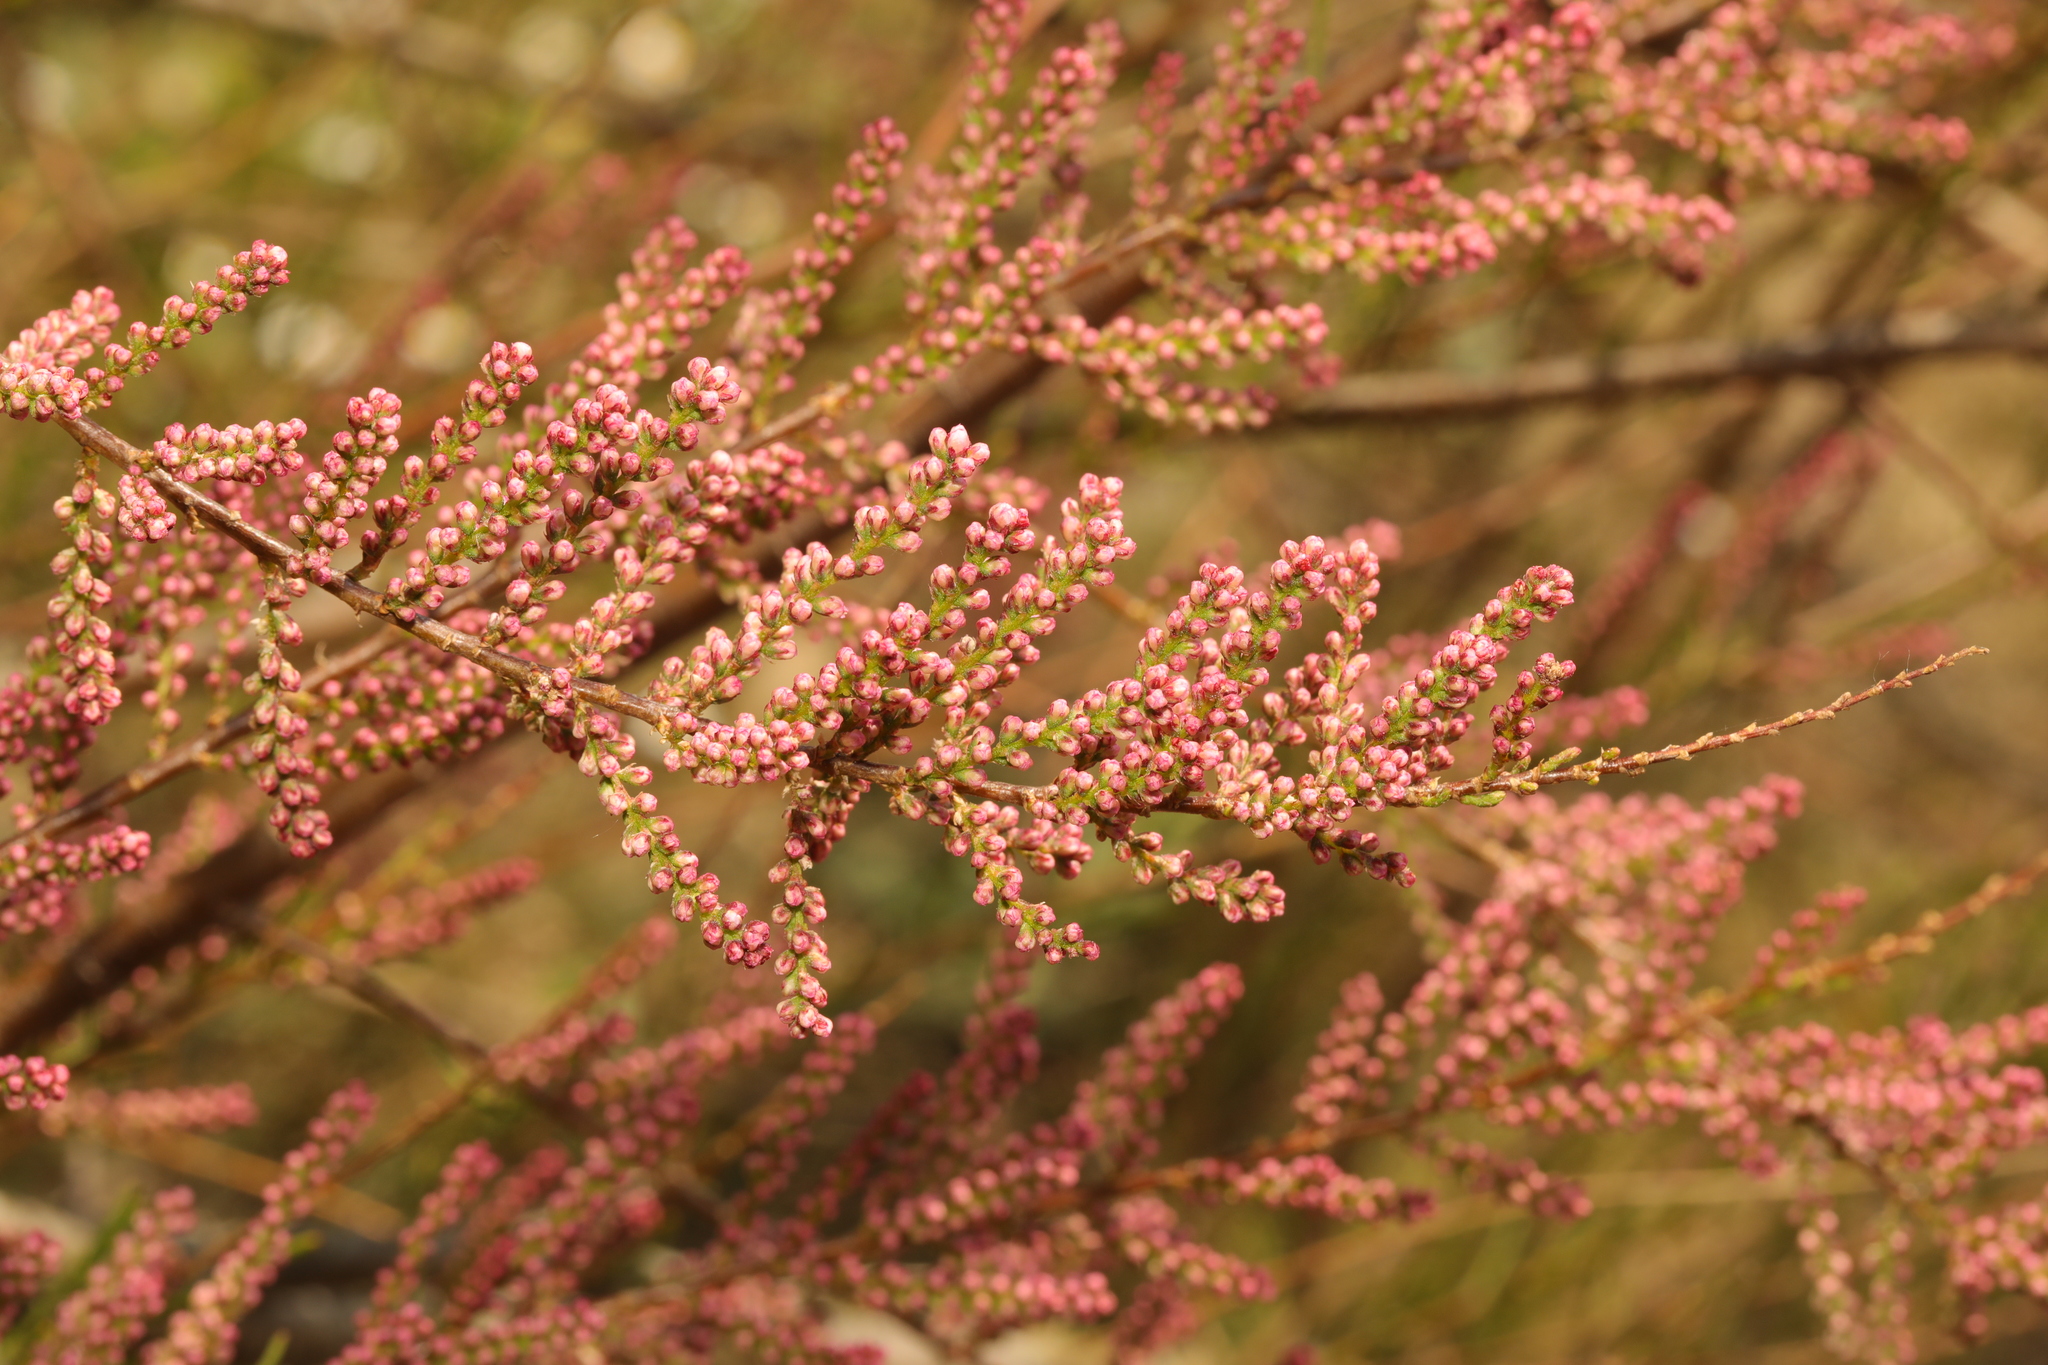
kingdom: Plantae
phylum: Tracheophyta
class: Magnoliopsida
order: Caryophyllales
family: Tamaricaceae
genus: Tamarix
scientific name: Tamarix parviflora
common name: Smallflower tamarisk
